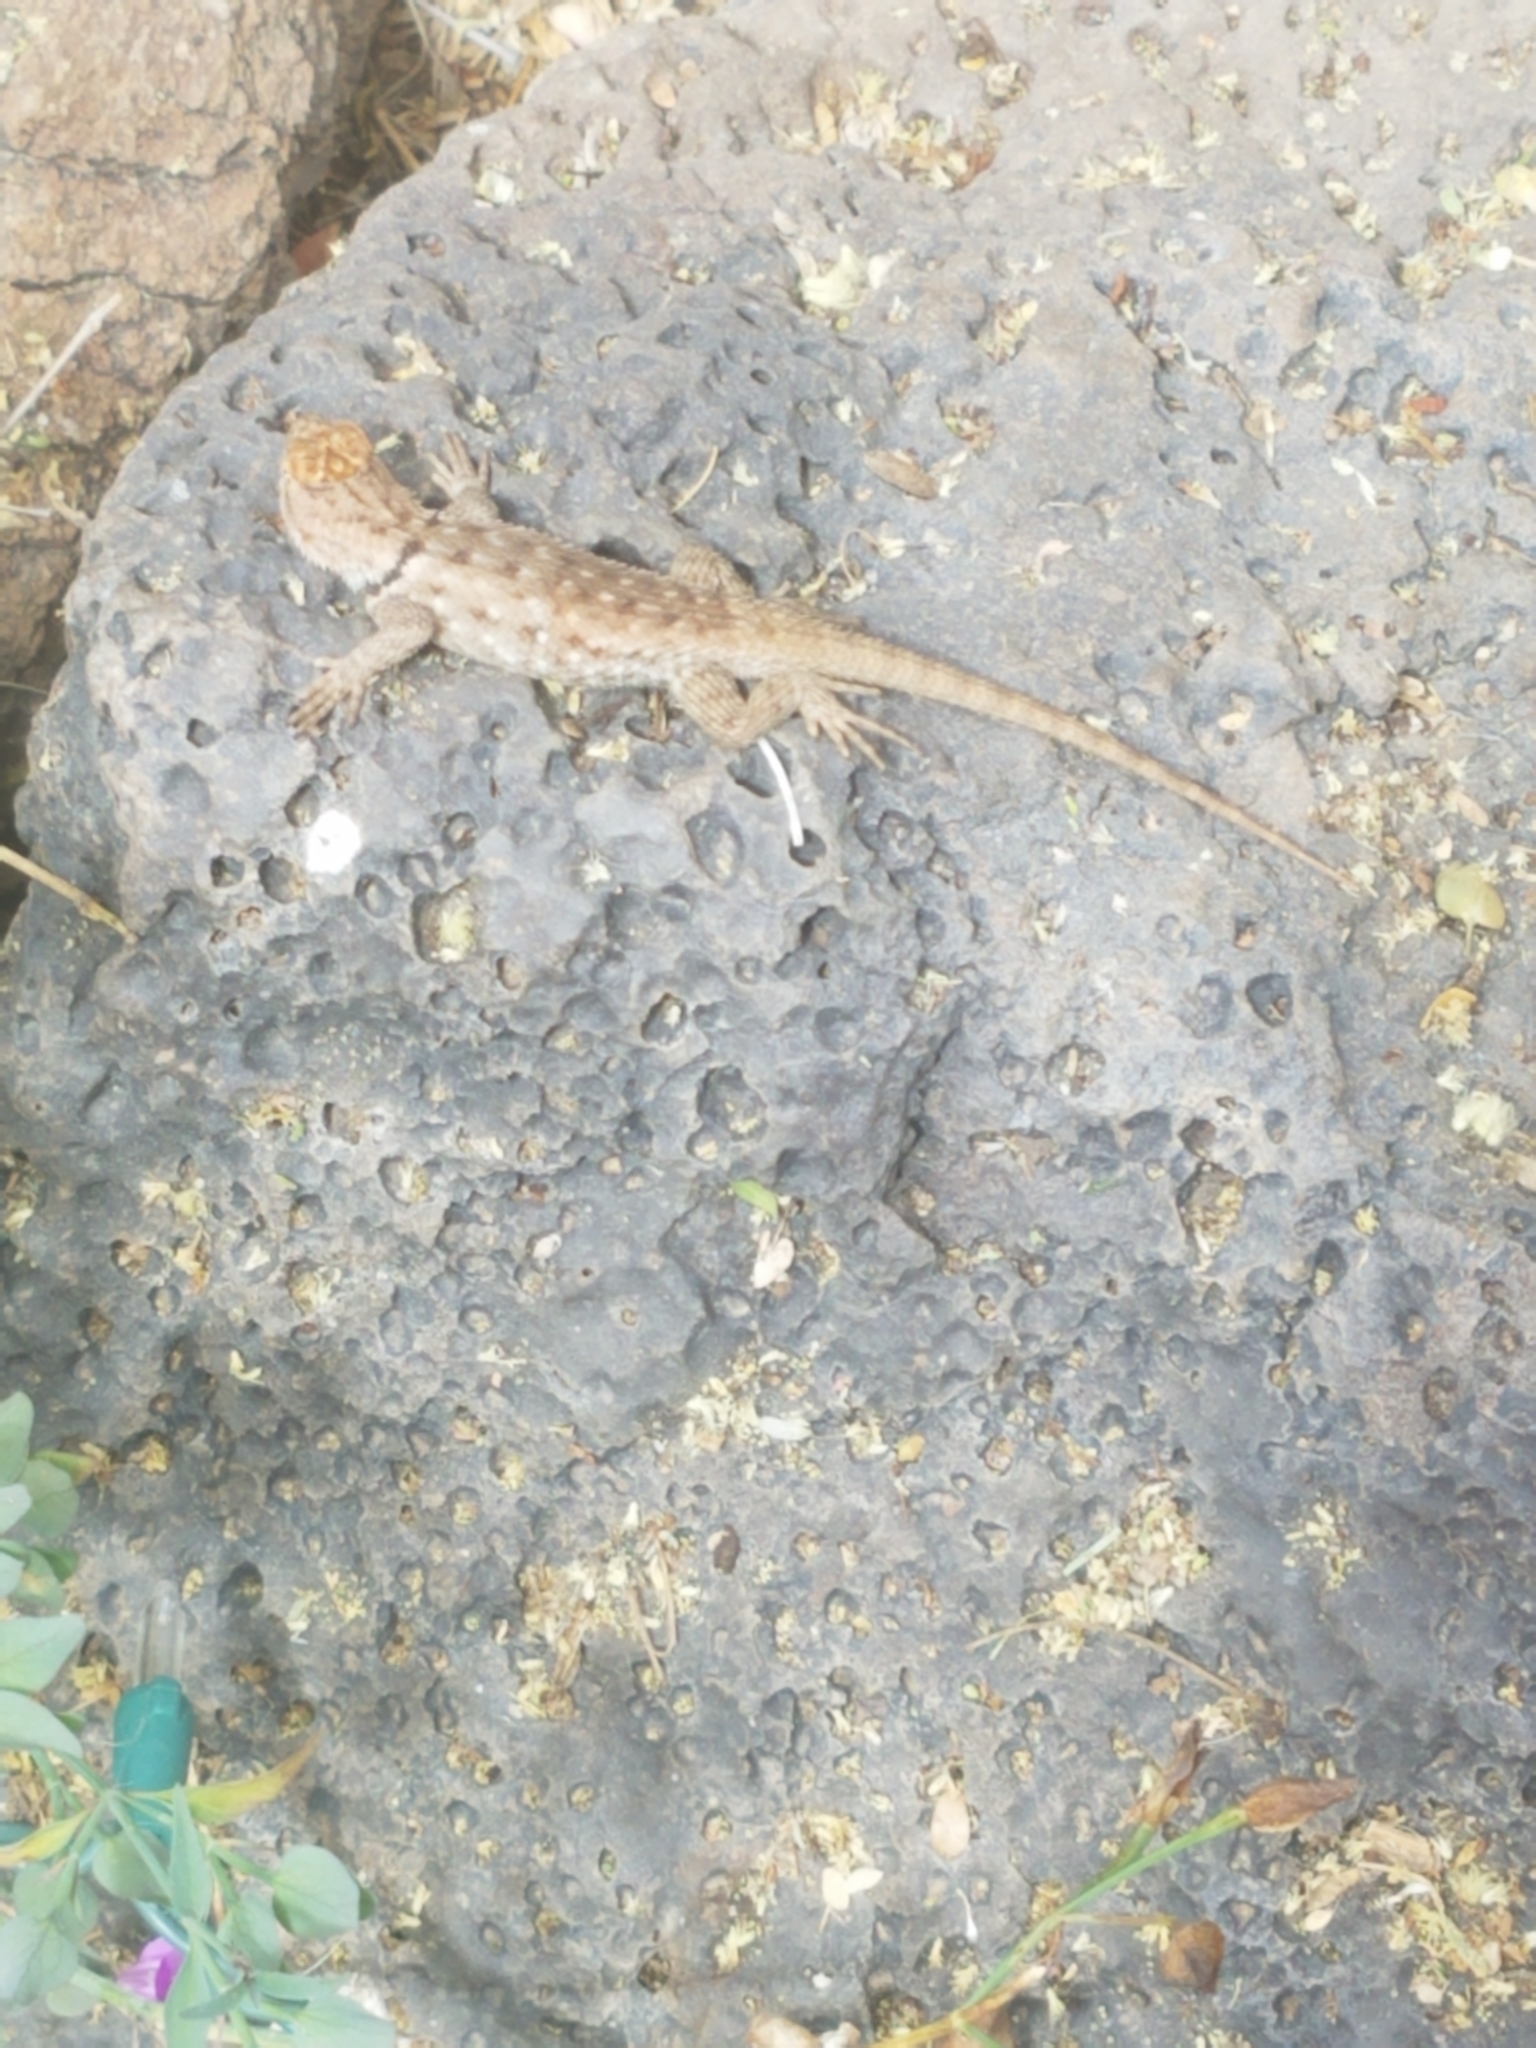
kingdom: Animalia
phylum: Chordata
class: Squamata
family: Phrynosomatidae
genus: Sceloporus
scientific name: Sceloporus magister
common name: Desert spiny lizard
